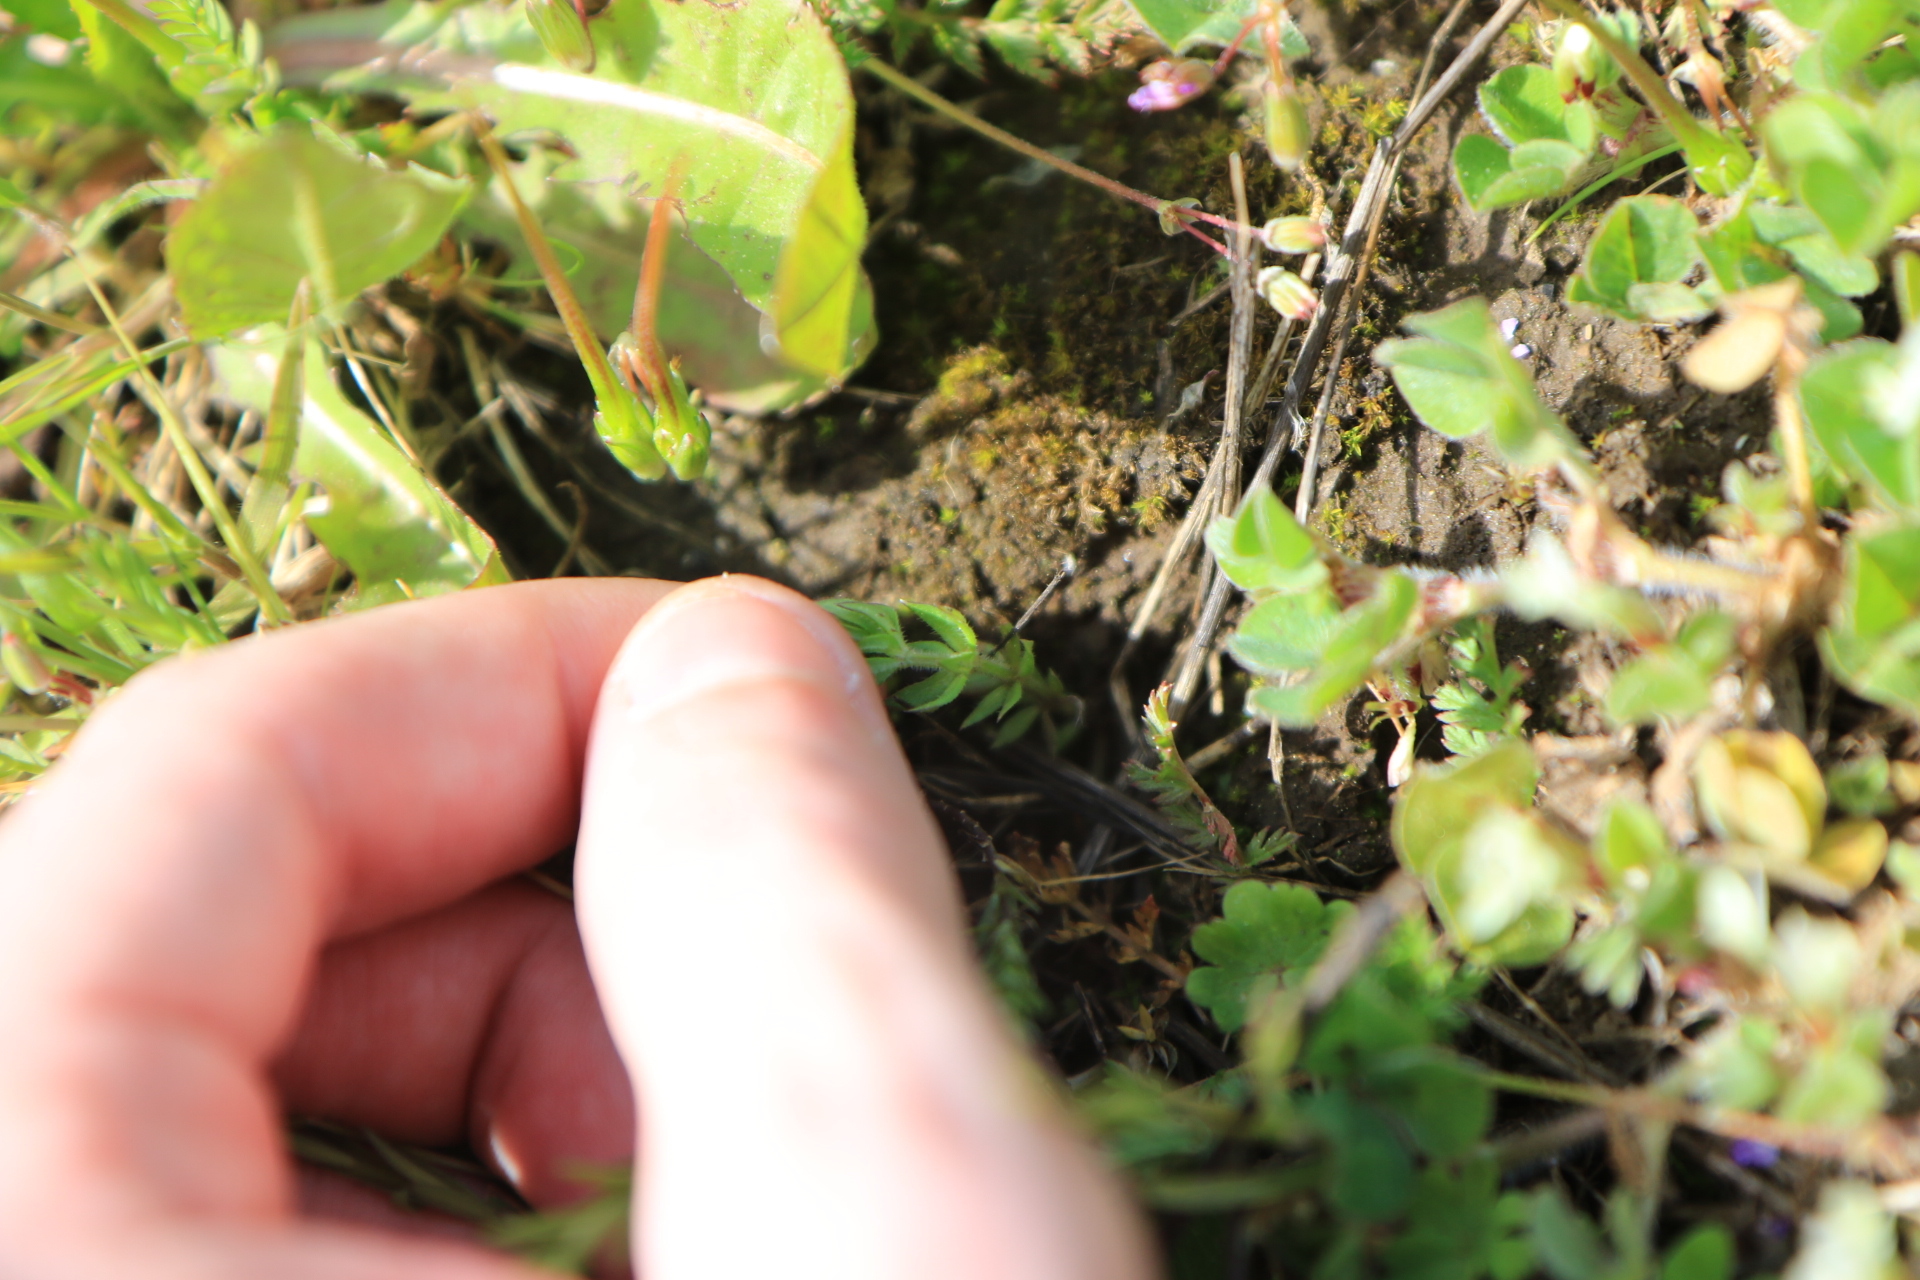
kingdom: Plantae
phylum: Tracheophyta
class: Magnoliopsida
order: Gentianales
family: Rubiaceae
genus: Sherardia
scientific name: Sherardia arvensis
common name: Field madder
